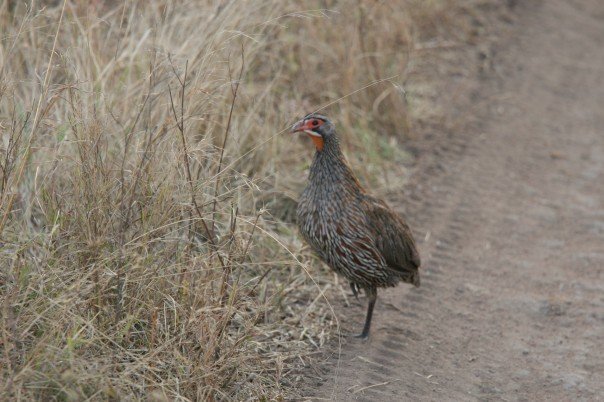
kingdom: Animalia
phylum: Chordata
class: Aves
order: Galliformes
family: Phasianidae
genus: Pternistis
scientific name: Pternistis rufopictus
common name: Grey-breasted spurfowl
